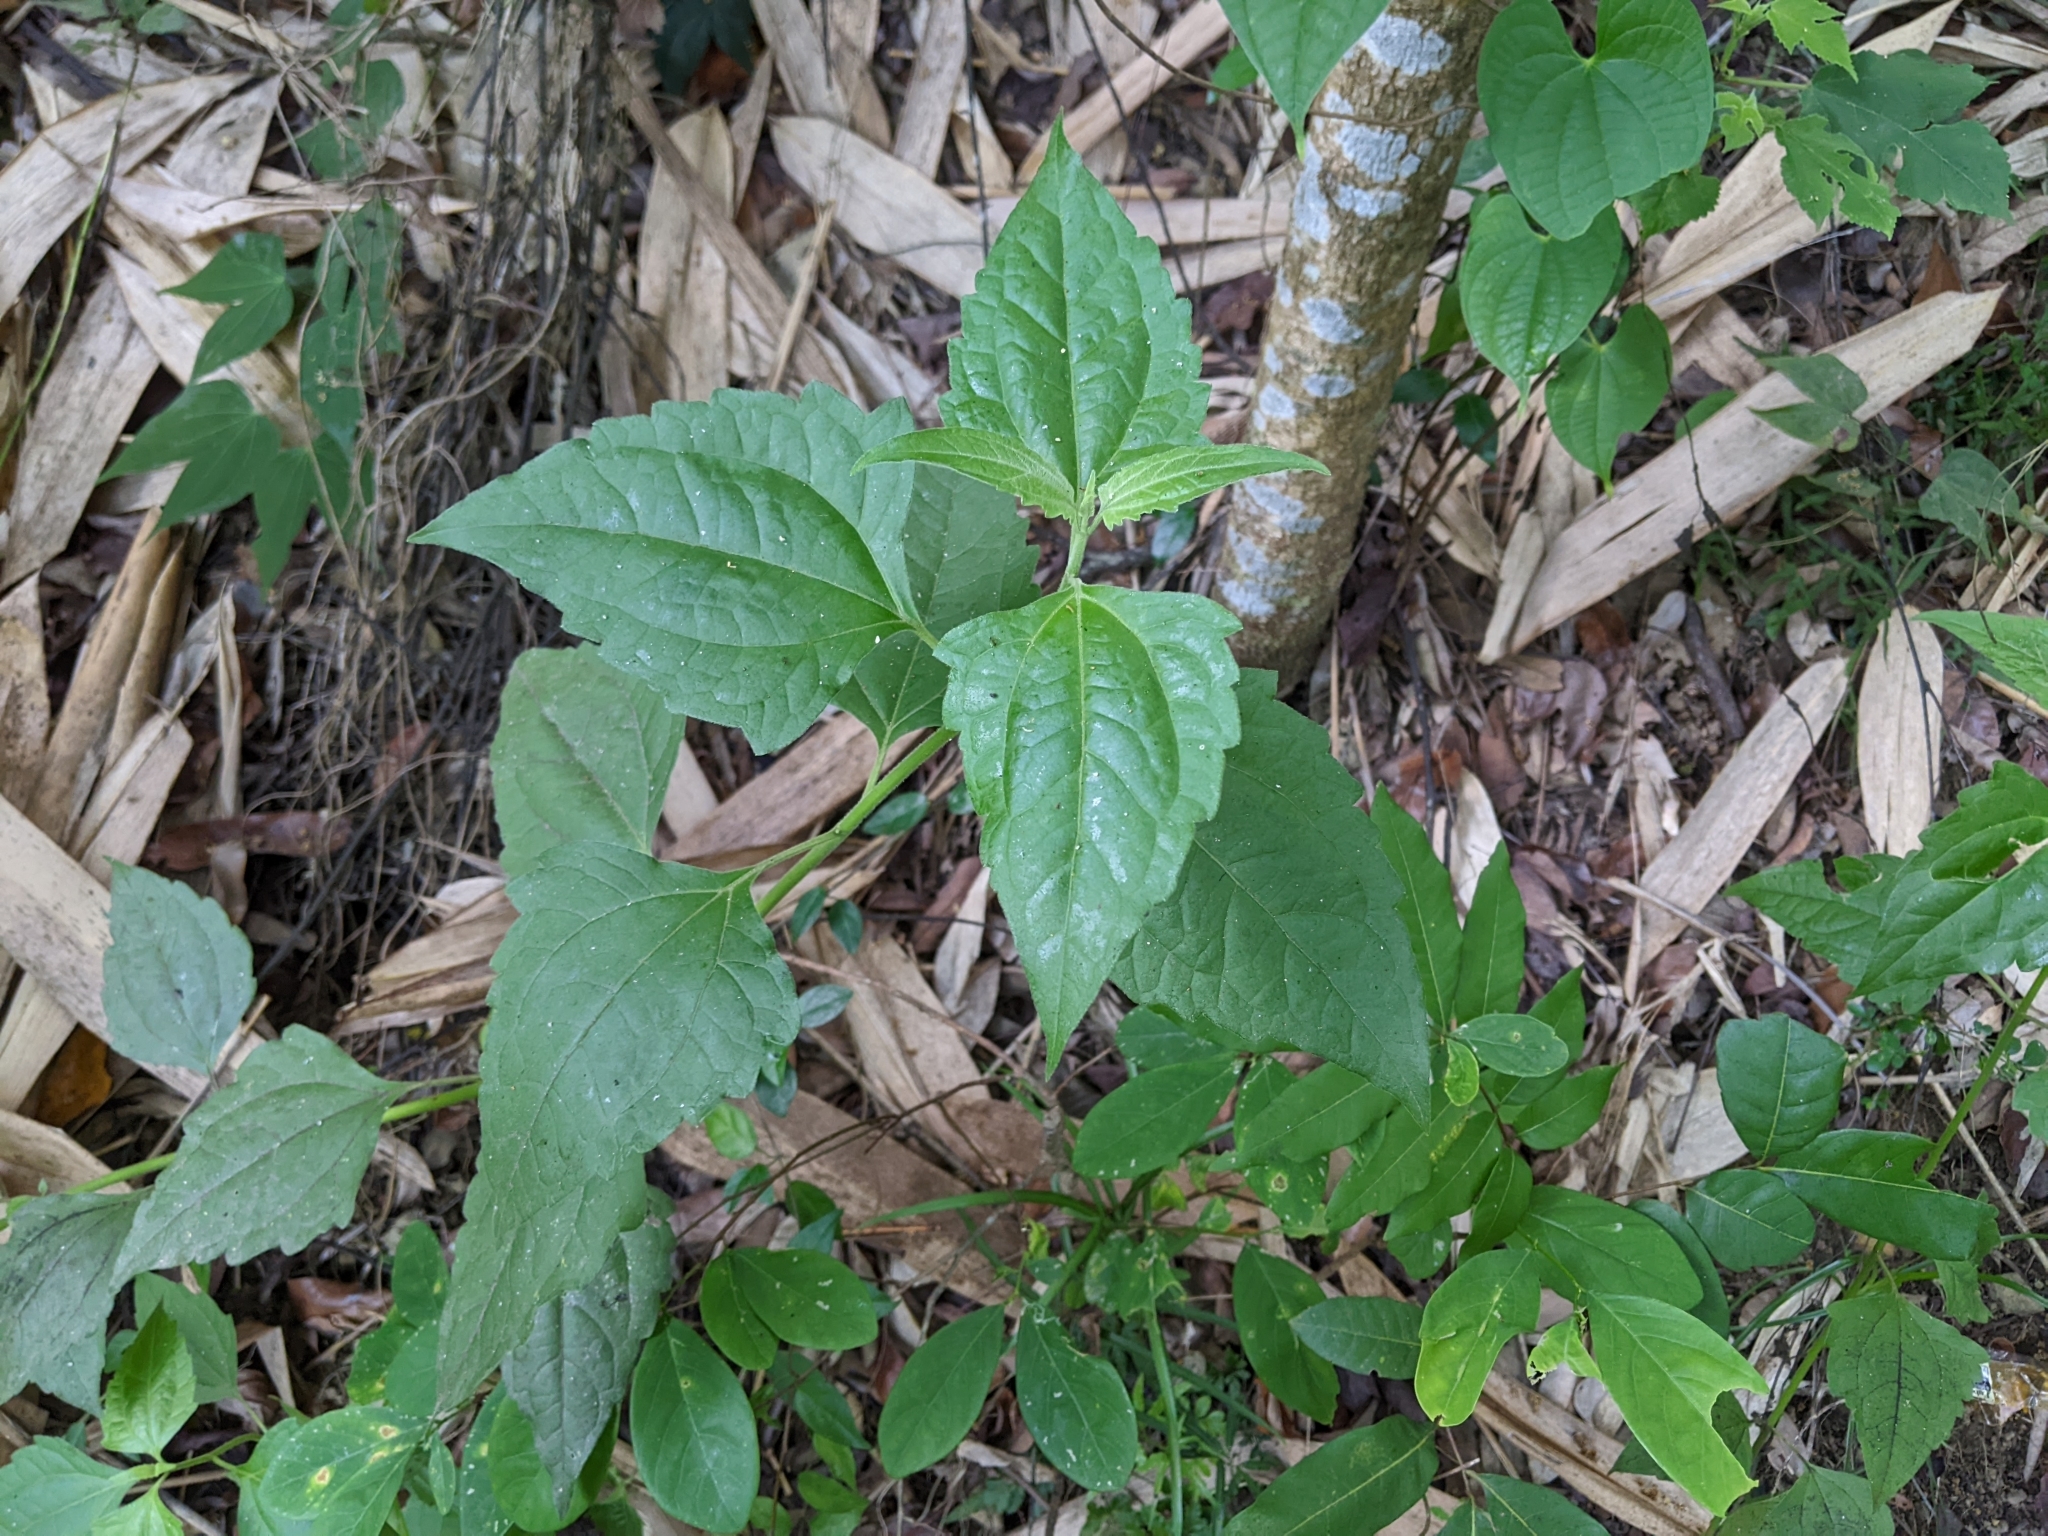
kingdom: Plantae
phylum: Tracheophyta
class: Magnoliopsida
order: Asterales
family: Asteraceae
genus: Chromolaena
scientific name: Chromolaena odorata
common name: Siamweed
